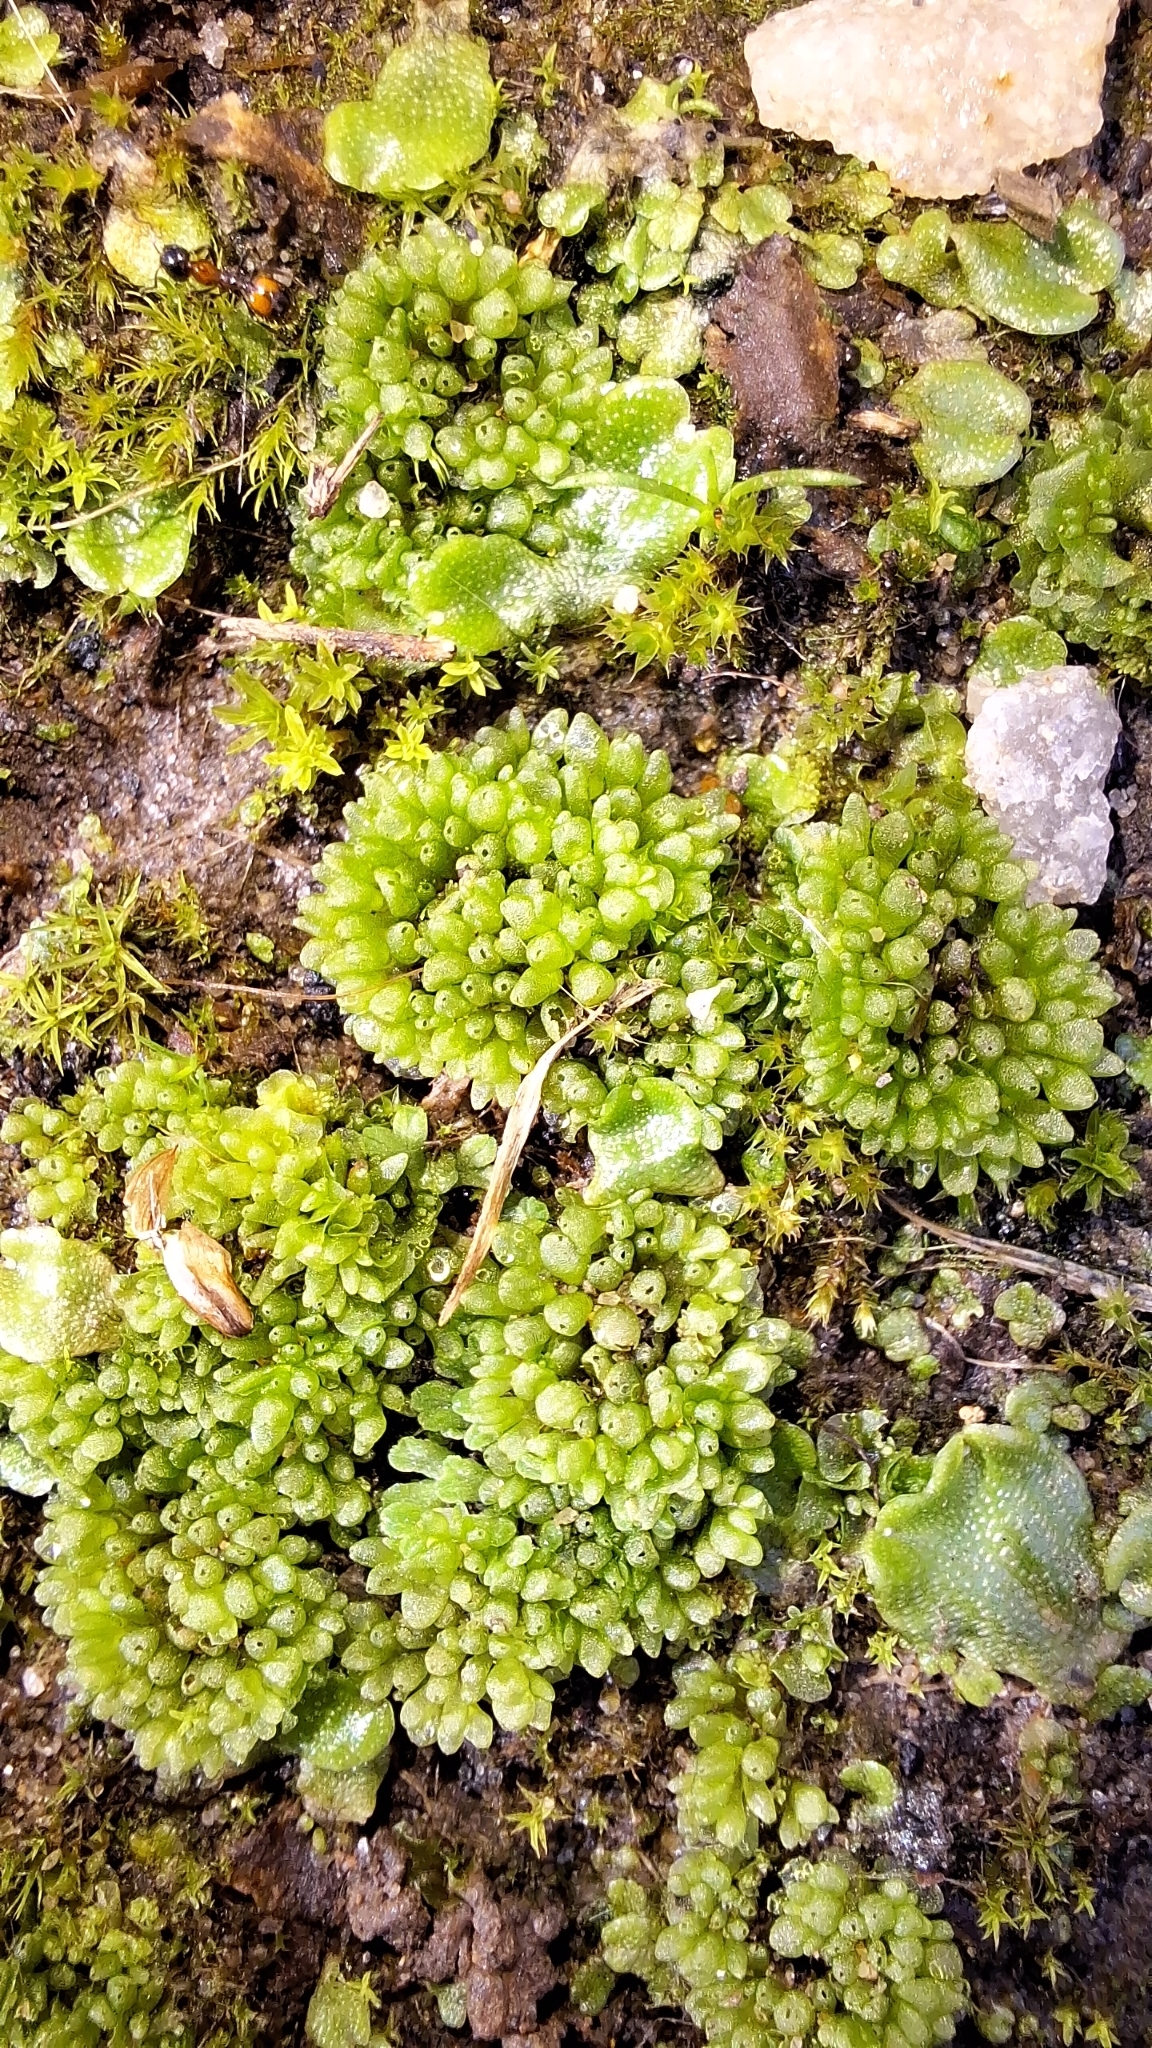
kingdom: Plantae
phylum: Marchantiophyta
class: Marchantiopsida
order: Sphaerocarpales
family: Sphaerocarpaceae
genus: Sphaerocarpos
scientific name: Sphaerocarpos texanus
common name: Texas balloonwort
